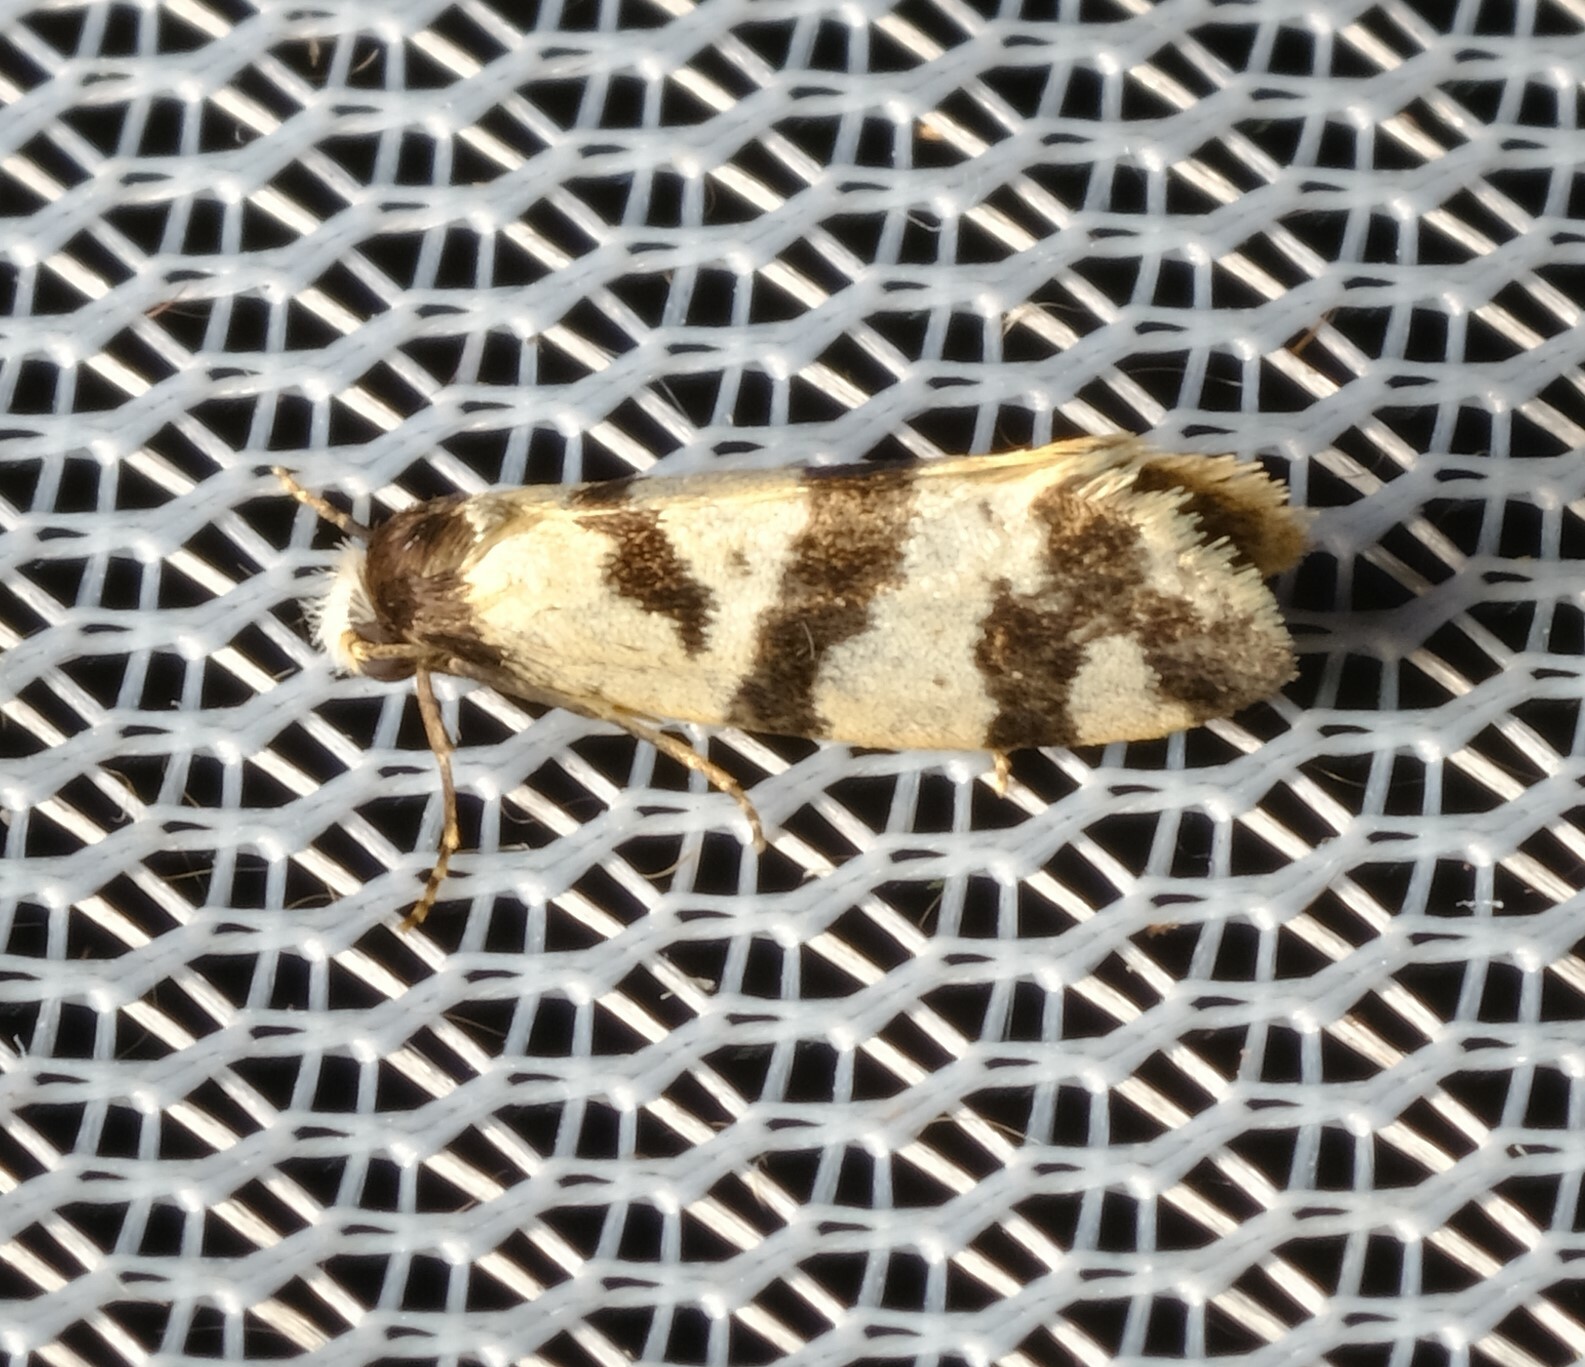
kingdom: Animalia
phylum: Arthropoda
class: Insecta
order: Lepidoptera
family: Psychidae
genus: Lepidoscia
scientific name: Lepidoscia characota
